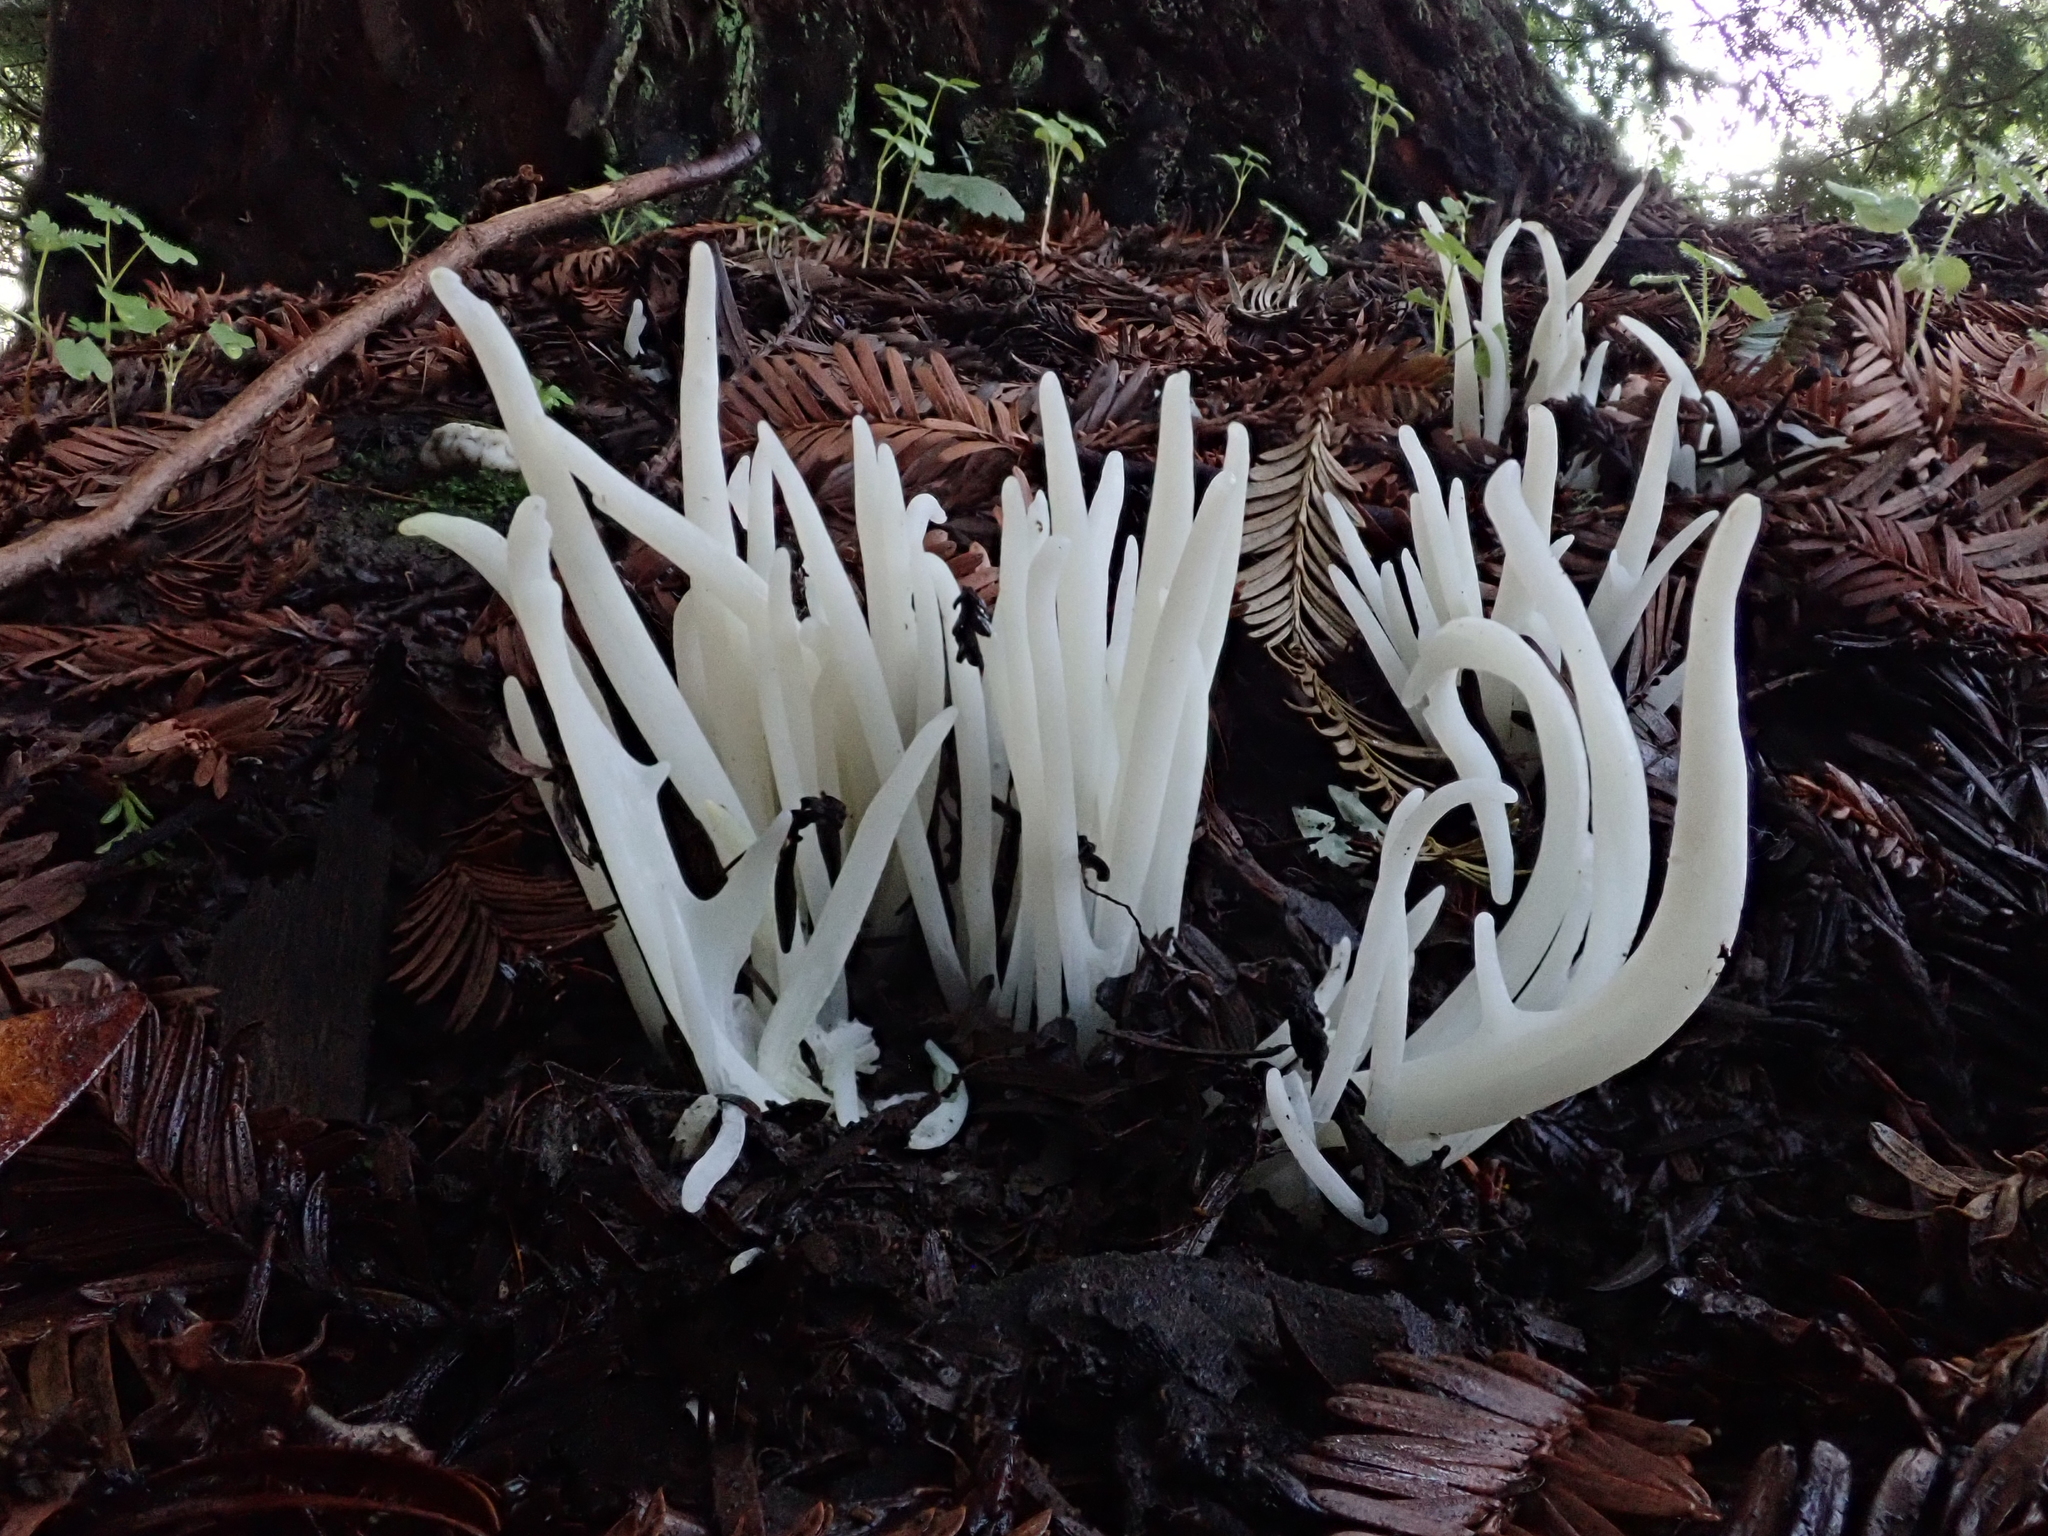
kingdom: Fungi
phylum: Basidiomycota
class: Agaricomycetes
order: Agaricales
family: Clavariaceae
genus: Clavaria
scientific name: Clavaria fragilis
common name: White spindles
